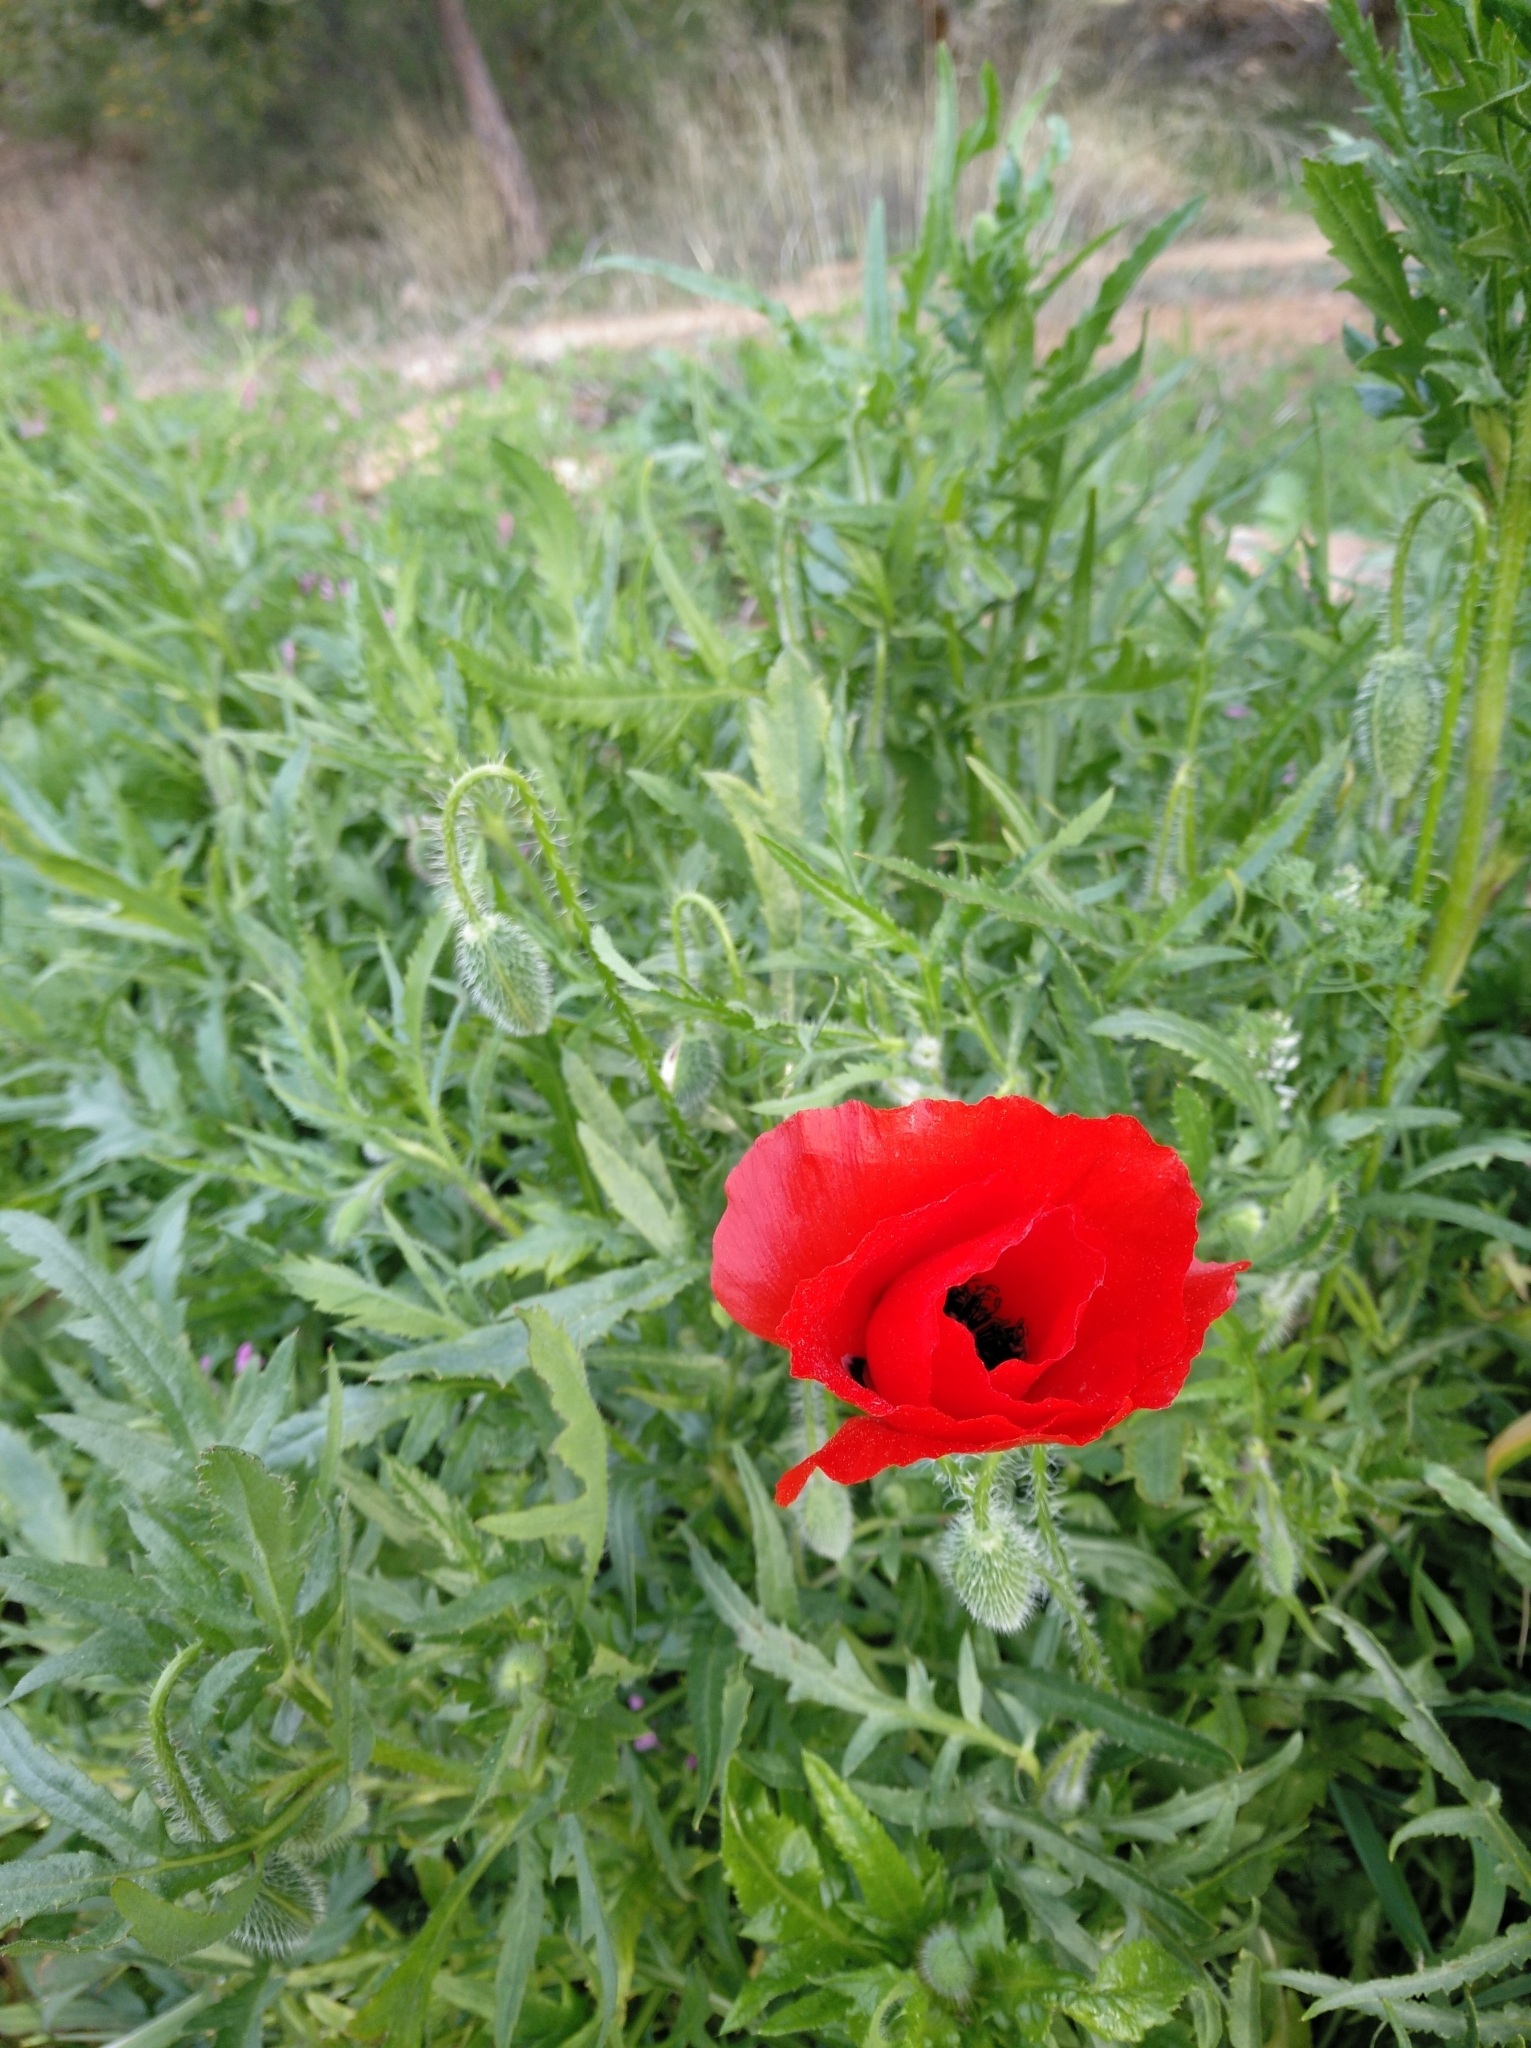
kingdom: Plantae
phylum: Tracheophyta
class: Magnoliopsida
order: Ranunculales
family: Papaveraceae
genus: Papaver
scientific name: Papaver rhoeas
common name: Corn poppy
